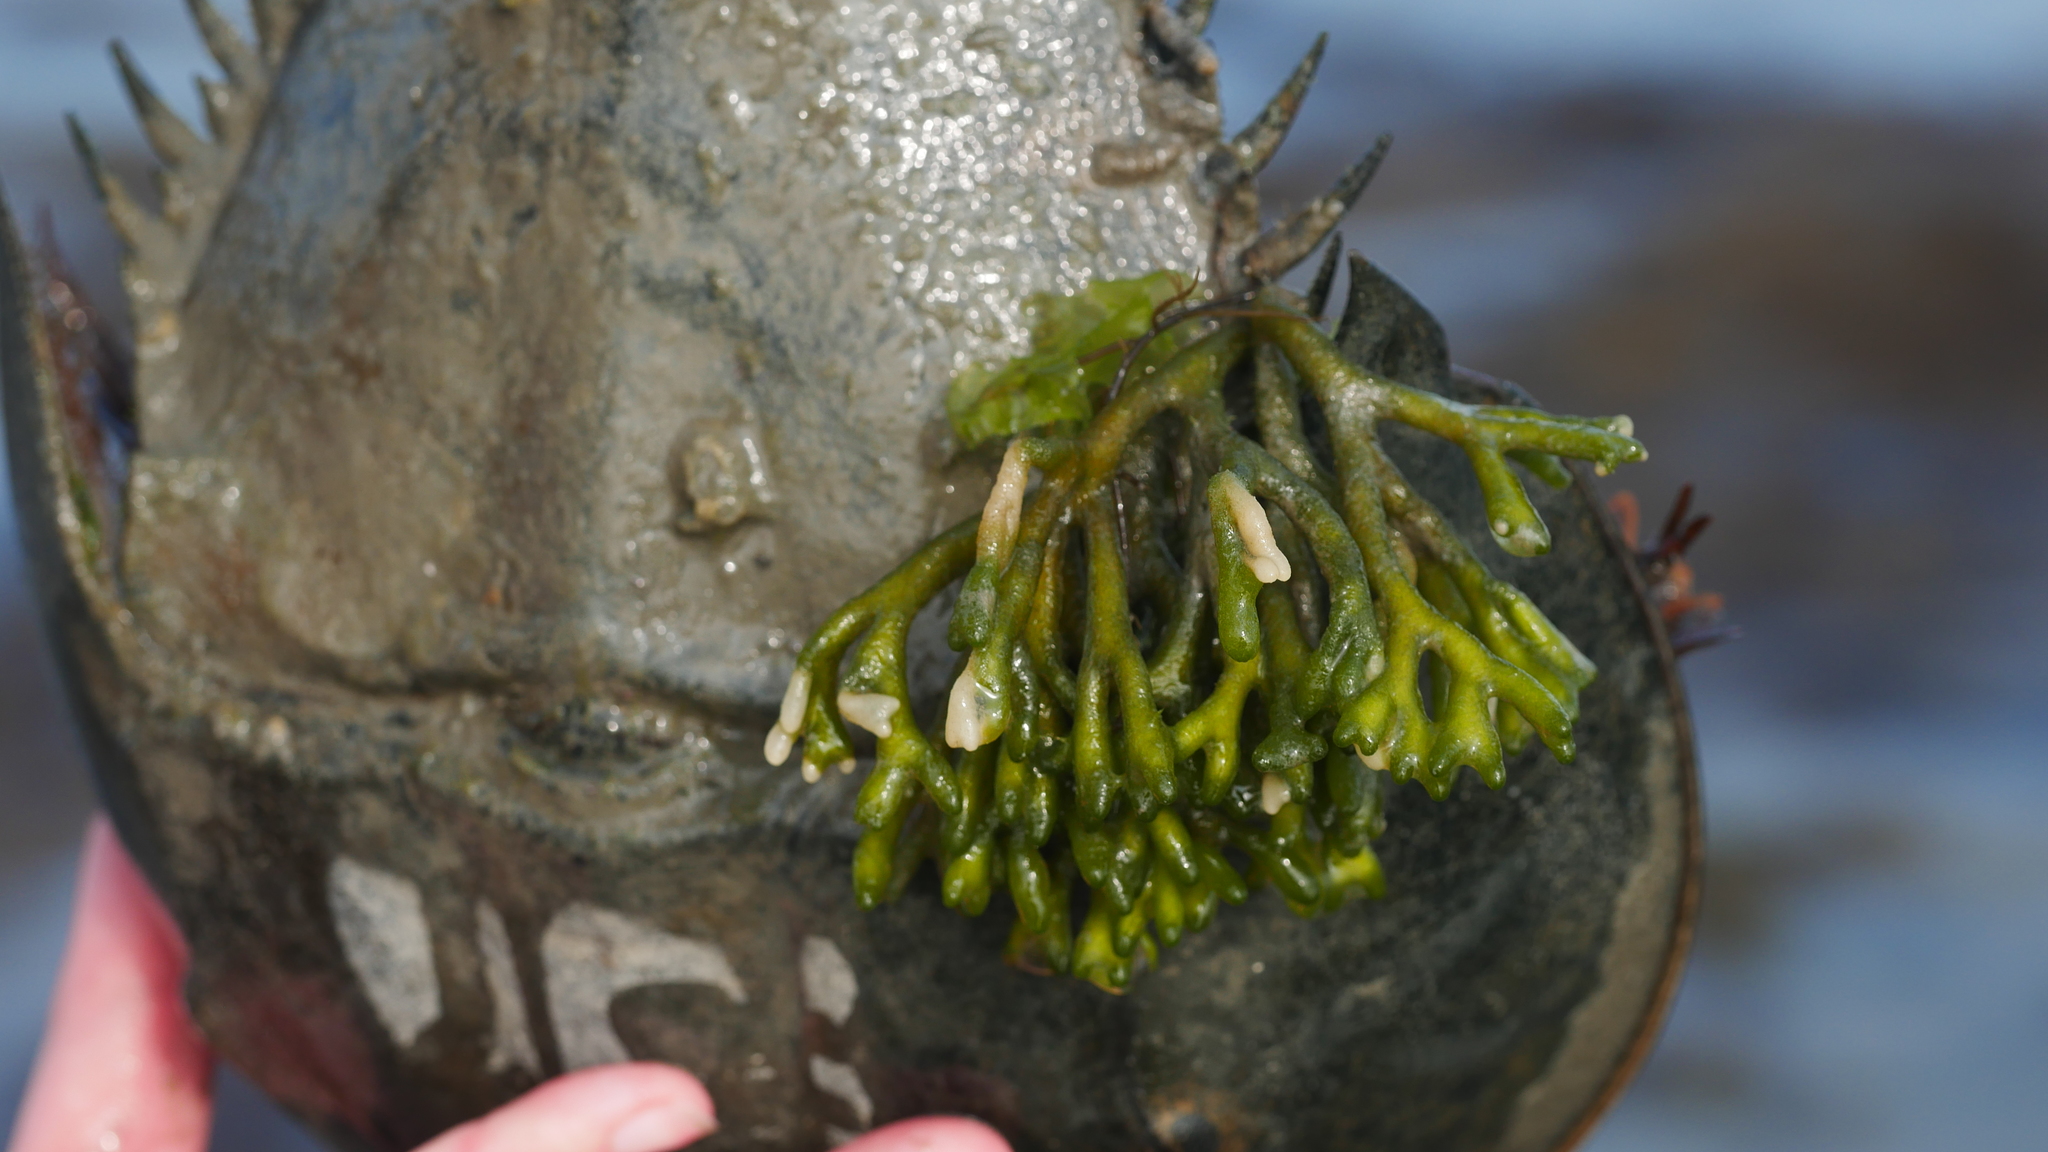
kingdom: Animalia
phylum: Arthropoda
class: Merostomata
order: Xiphosurida
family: Limulidae
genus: Limulus
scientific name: Limulus polyphemus
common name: Horseshoe crab
